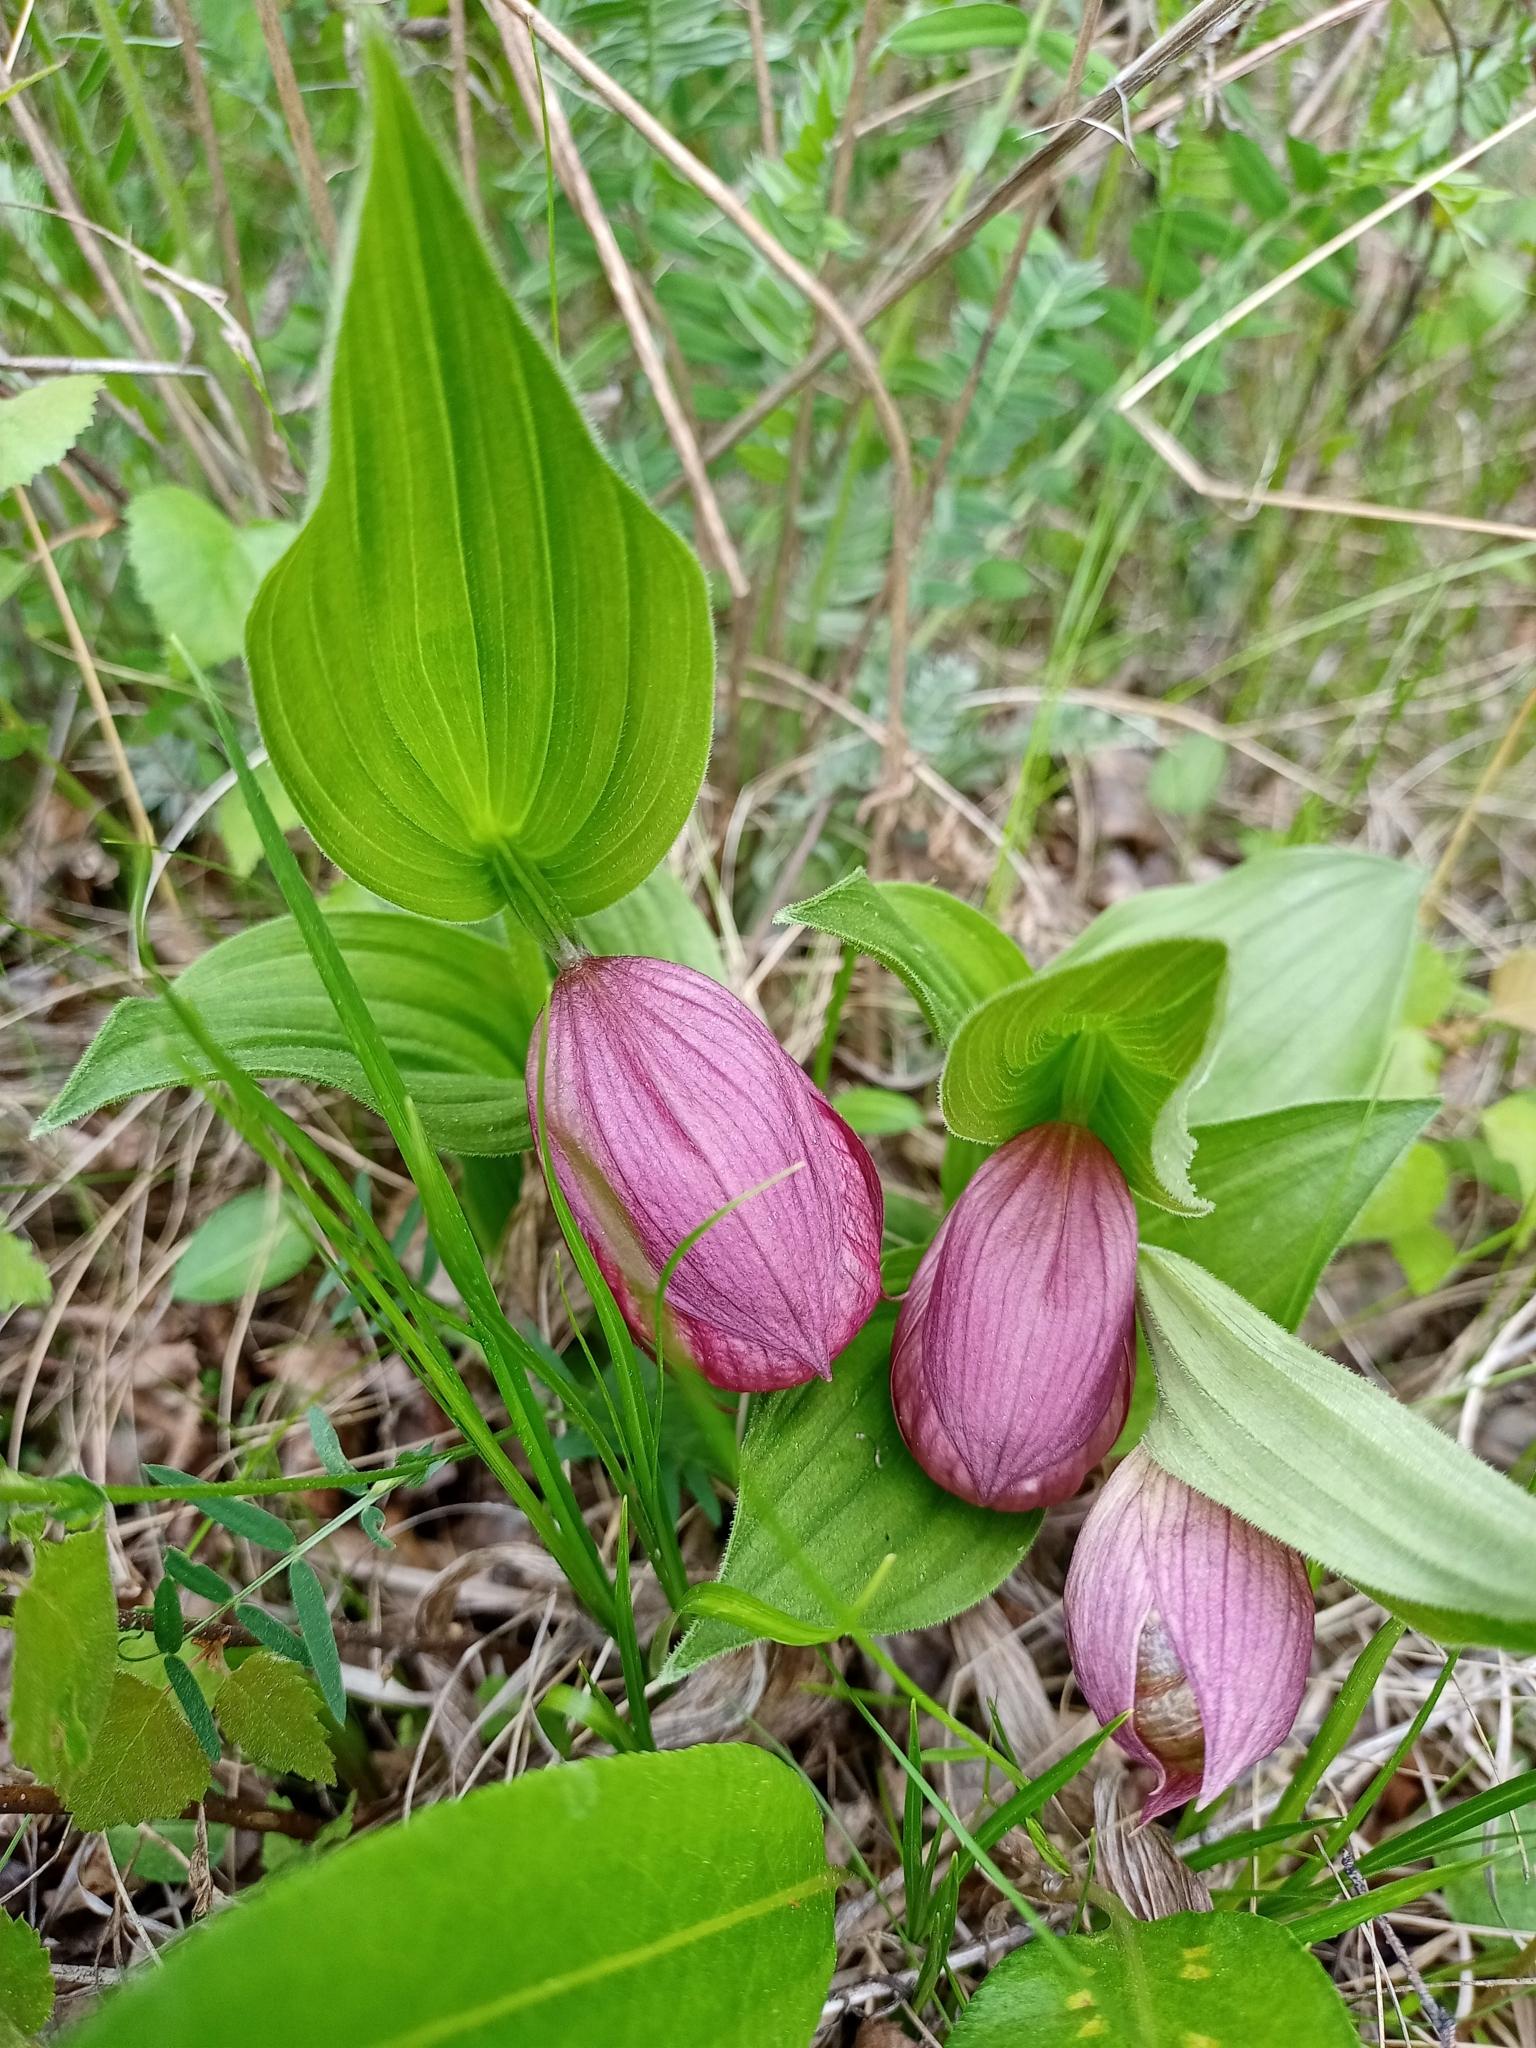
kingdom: Plantae
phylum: Tracheophyta
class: Liliopsida
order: Asparagales
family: Orchidaceae
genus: Cypripedium
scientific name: Cypripedium macranthos
